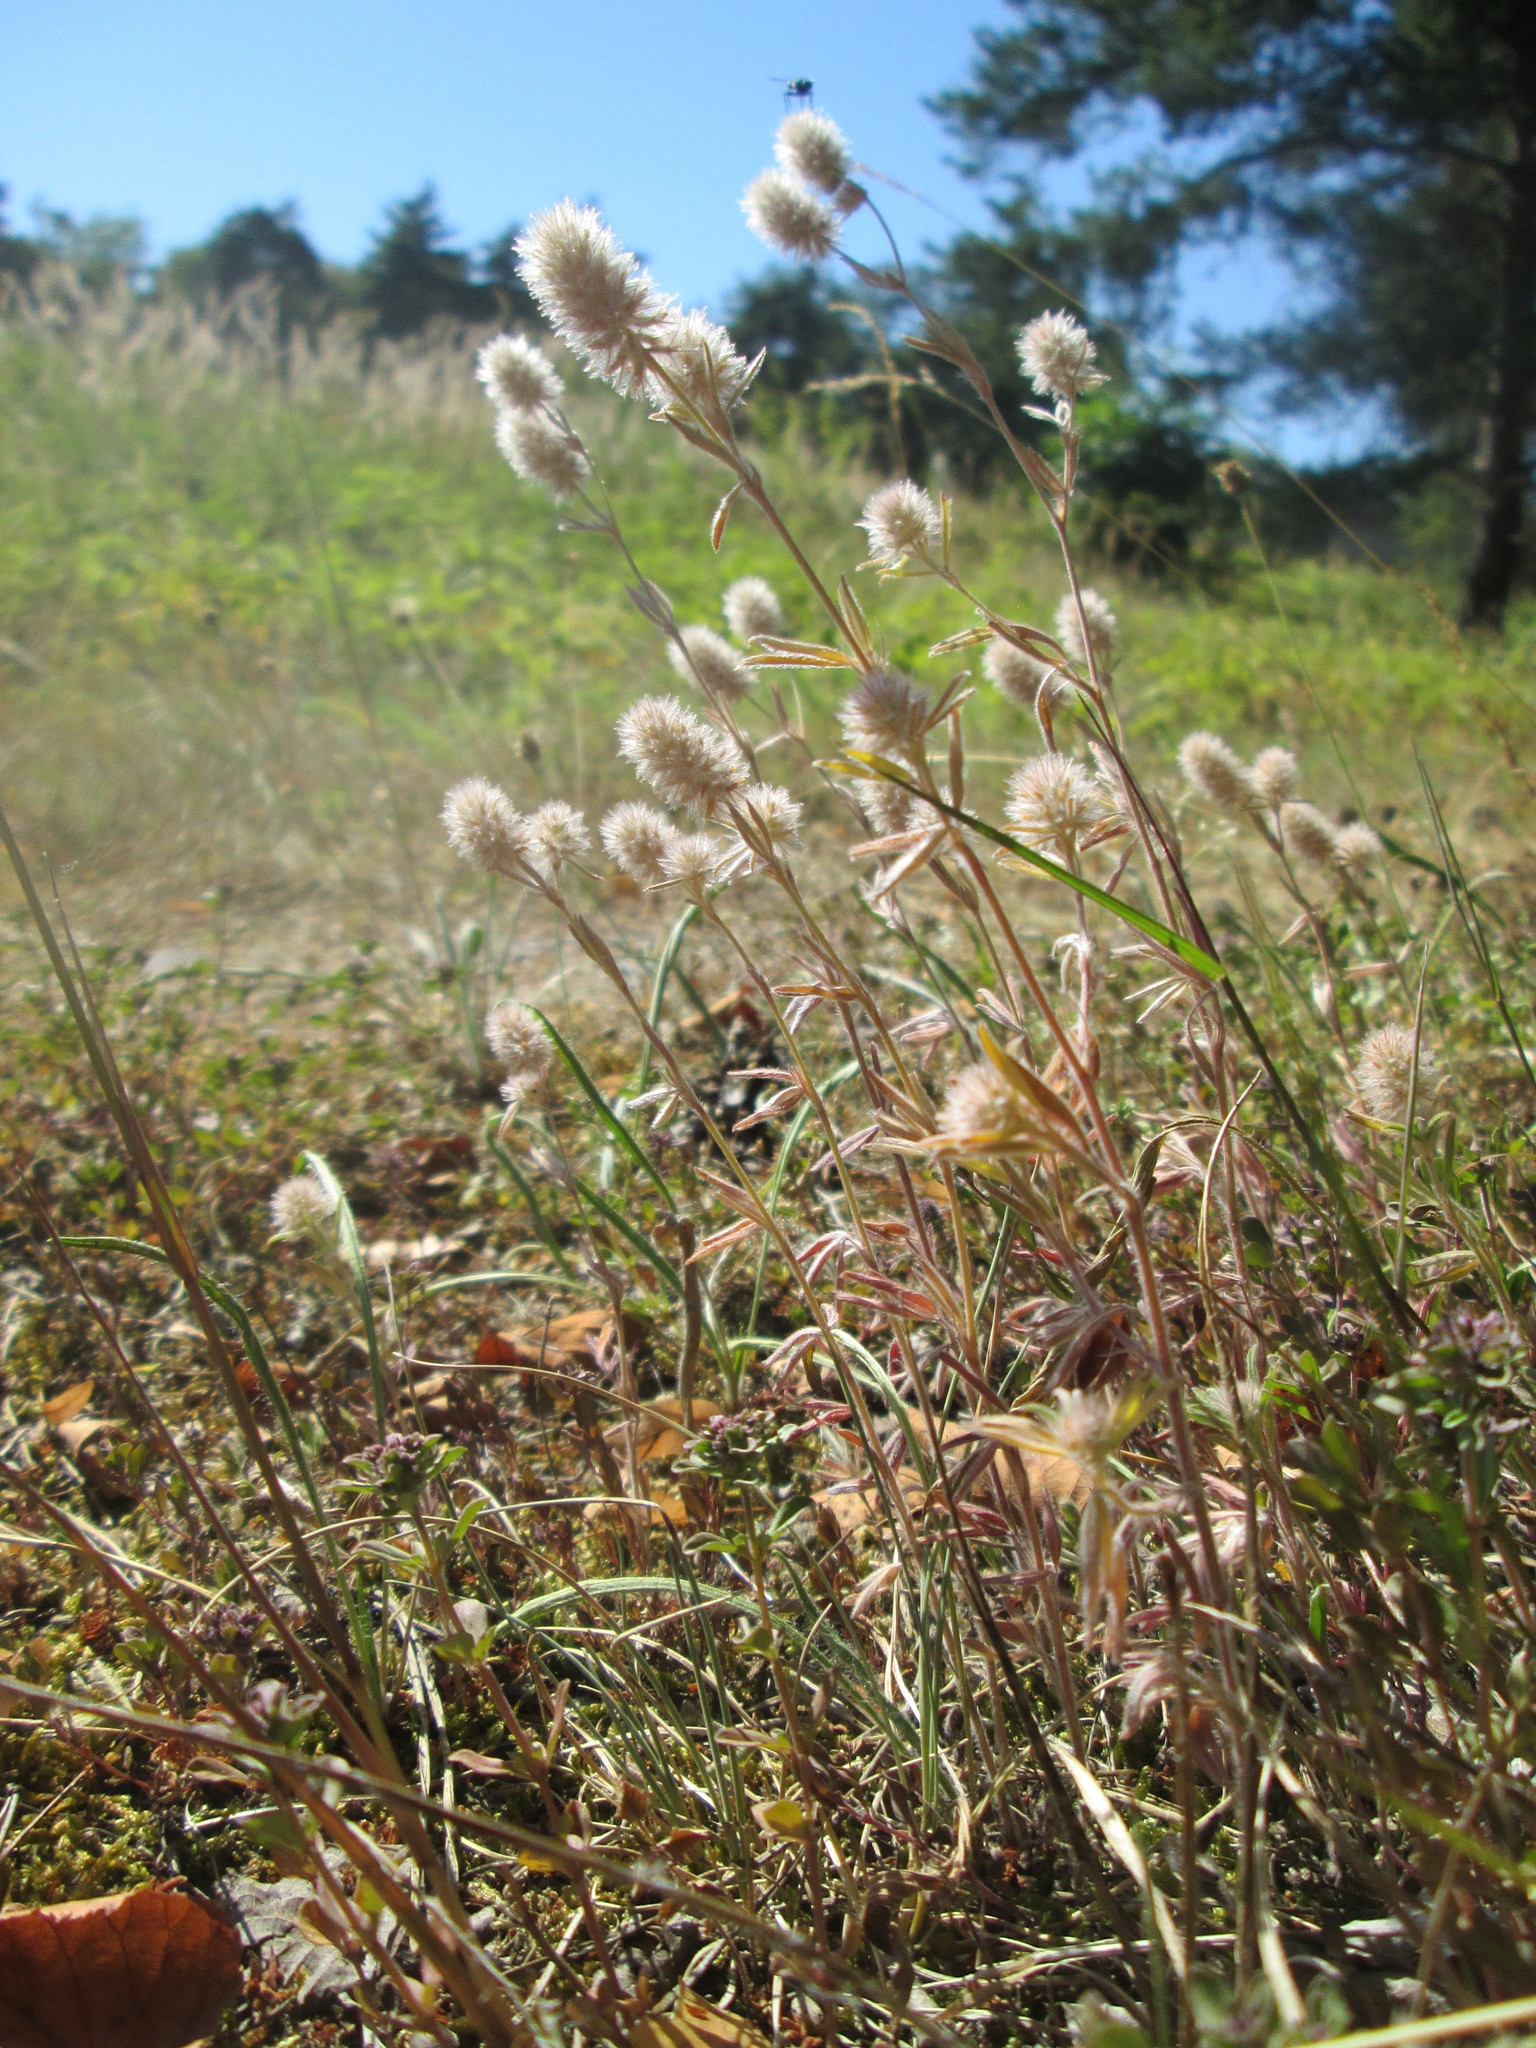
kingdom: Plantae
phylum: Tracheophyta
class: Magnoliopsida
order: Fabales
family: Fabaceae
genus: Trifolium
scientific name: Trifolium arvense
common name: Hare's-foot clover
